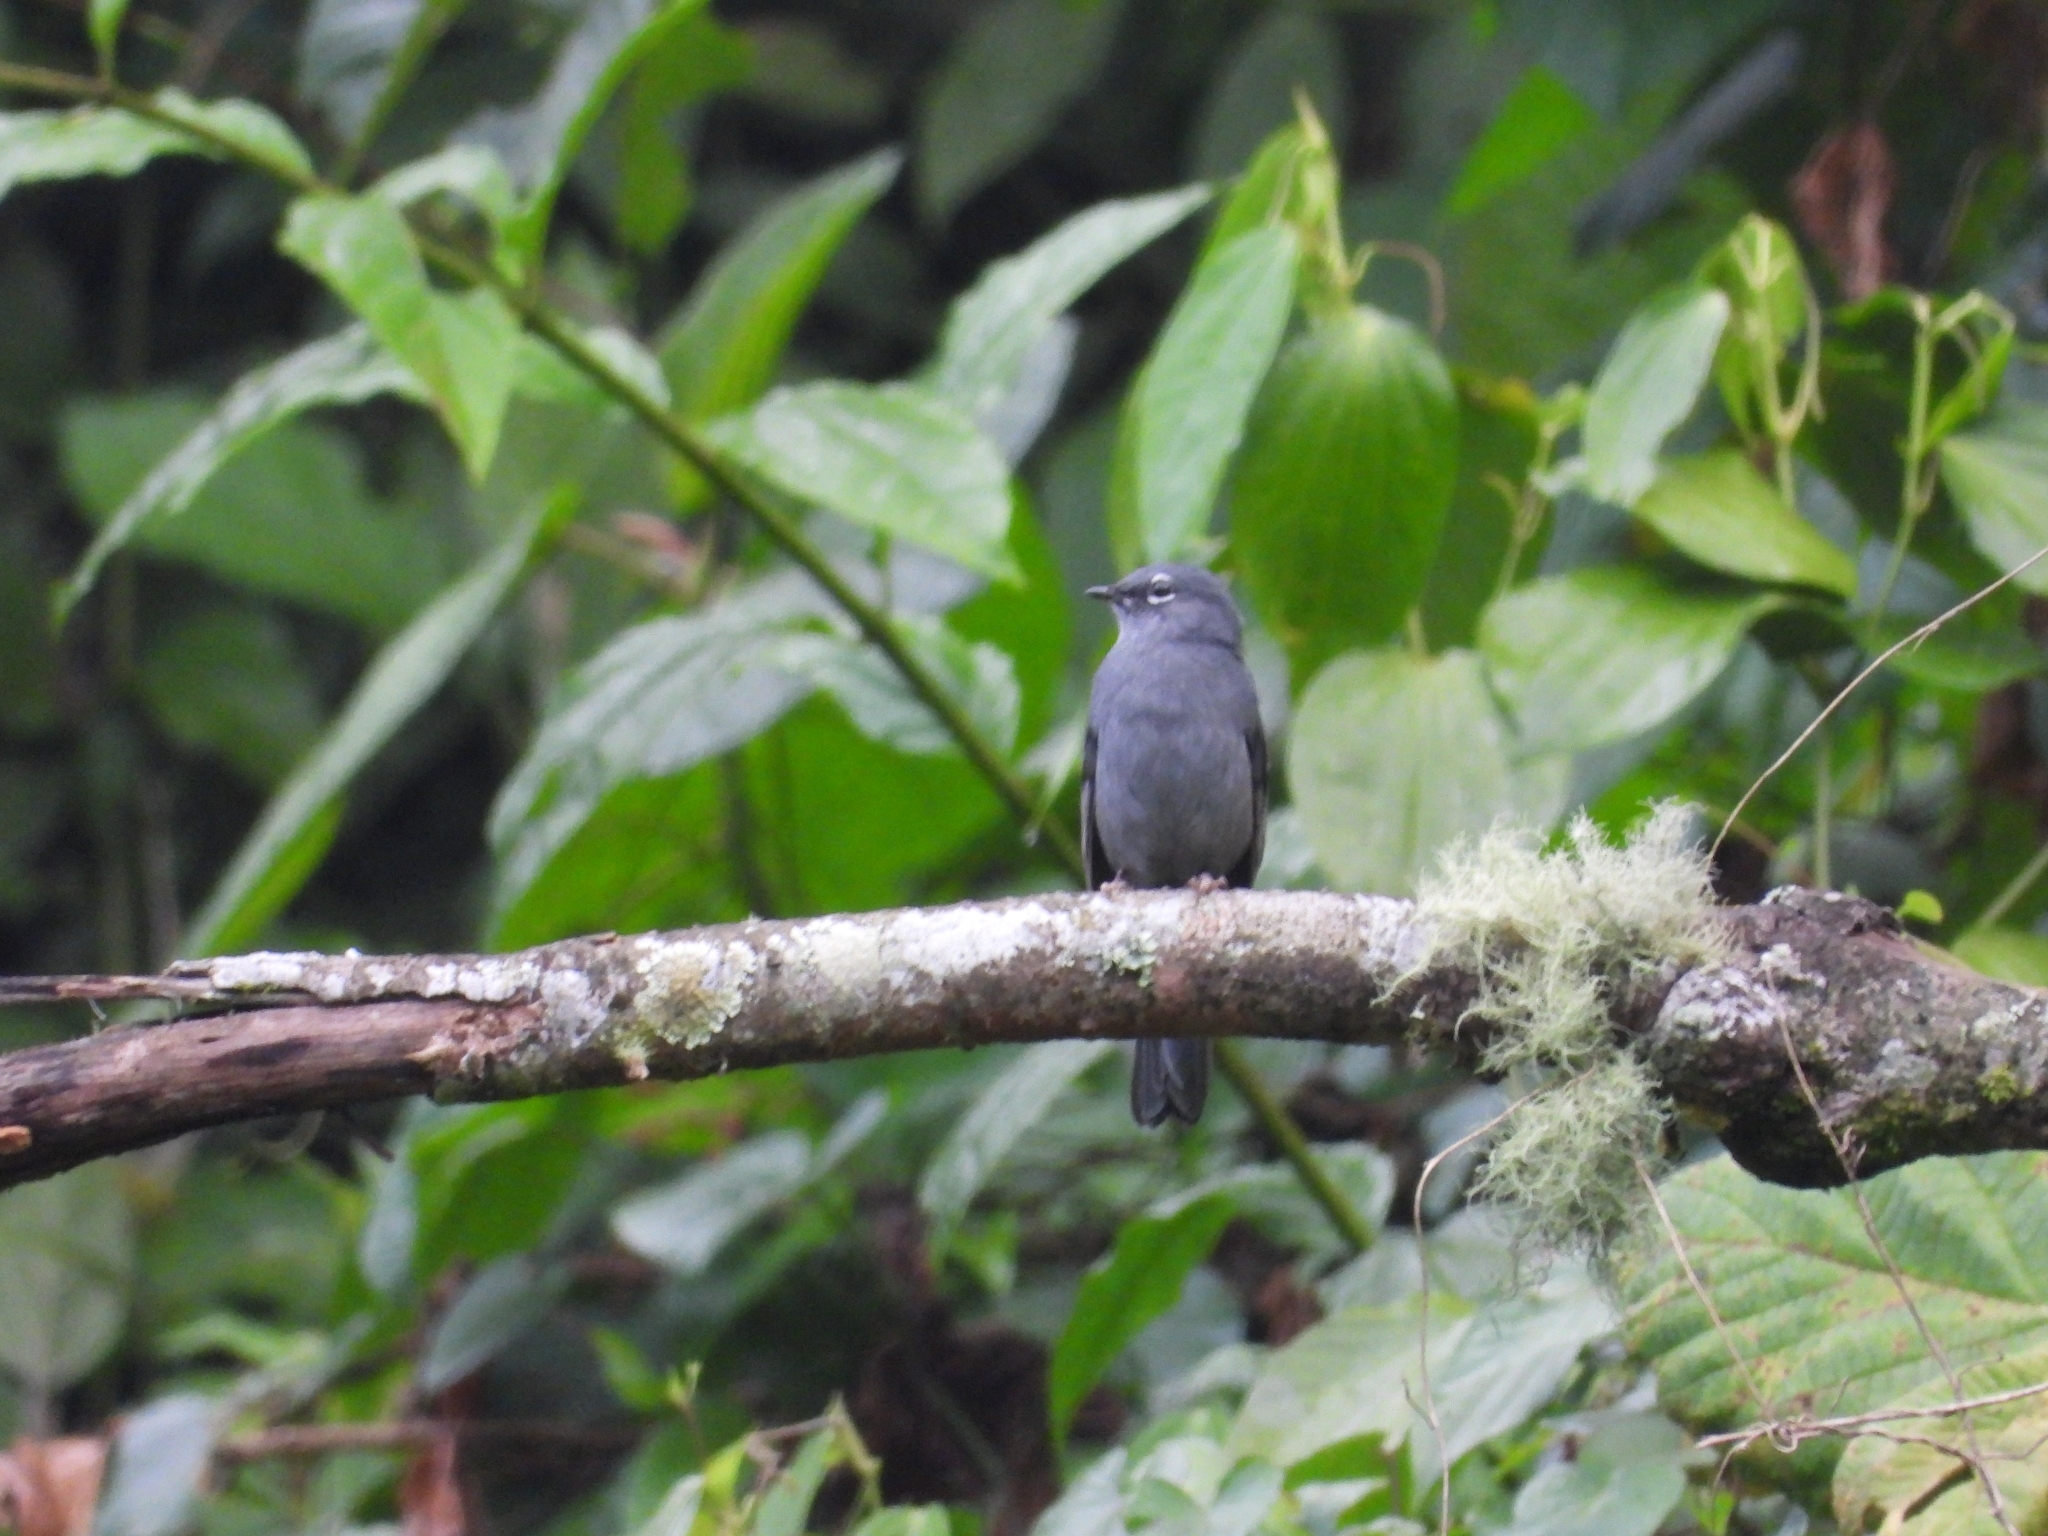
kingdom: Animalia
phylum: Chordata
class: Aves
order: Passeriformes
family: Turdidae
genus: Myadestes
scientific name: Myadestes unicolor
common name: Slate-colored solitaire
